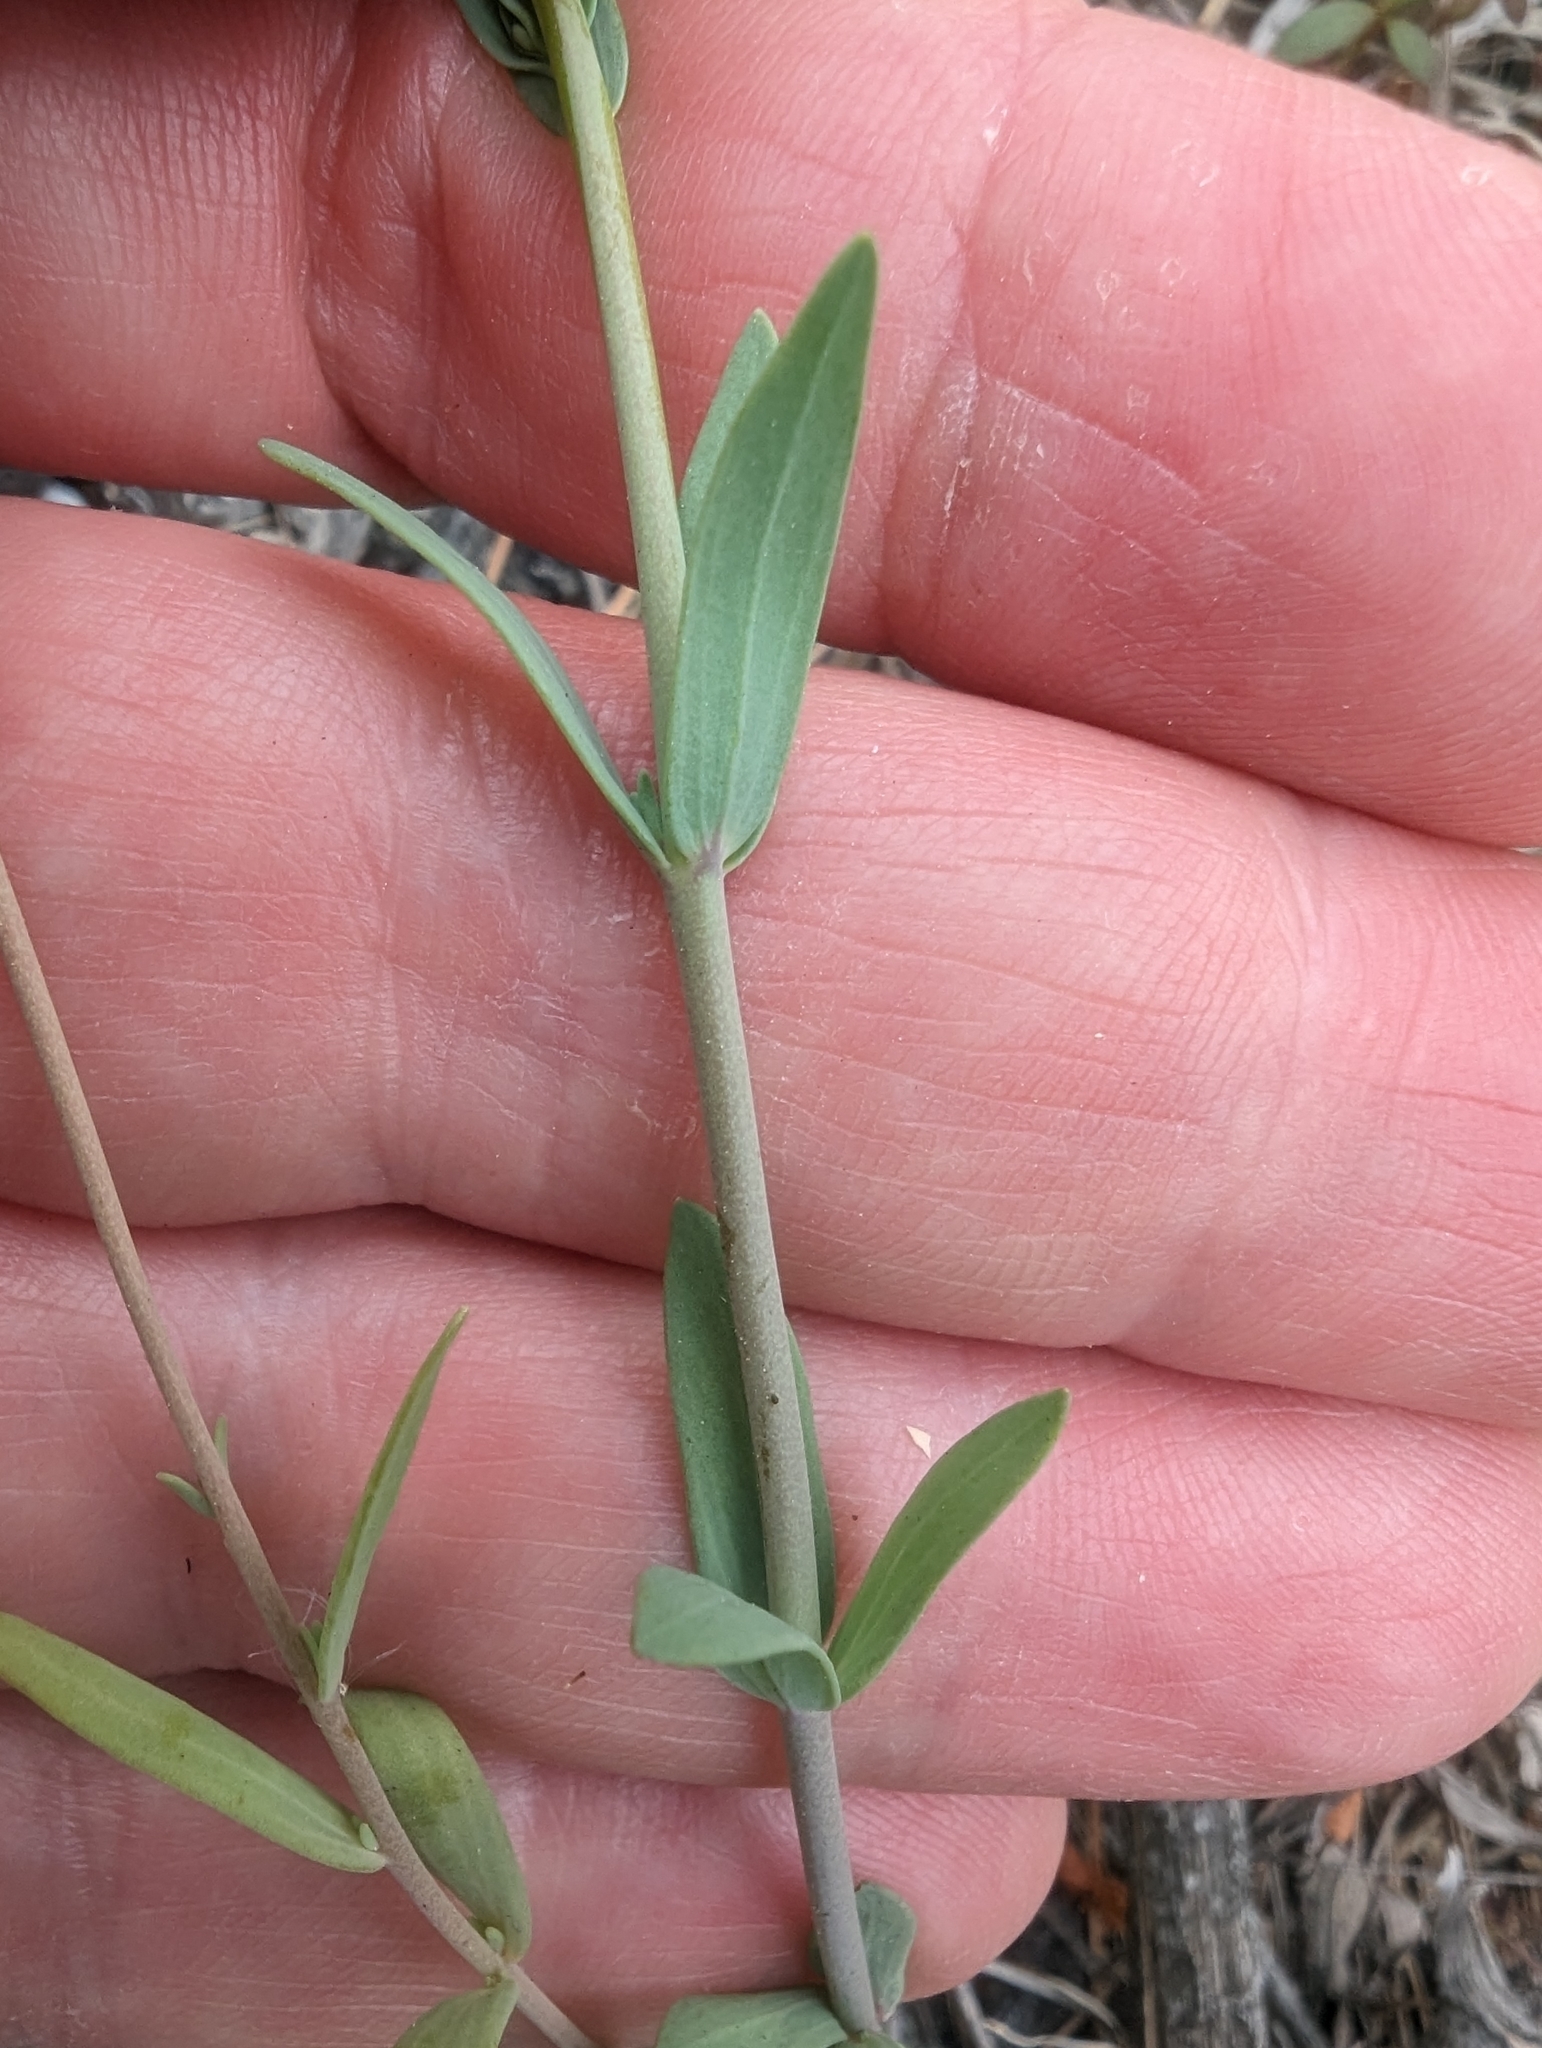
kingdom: Plantae
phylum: Tracheophyta
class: Magnoliopsida
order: Lamiales
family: Plantaginaceae
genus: Linaria
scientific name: Linaria micrantha
